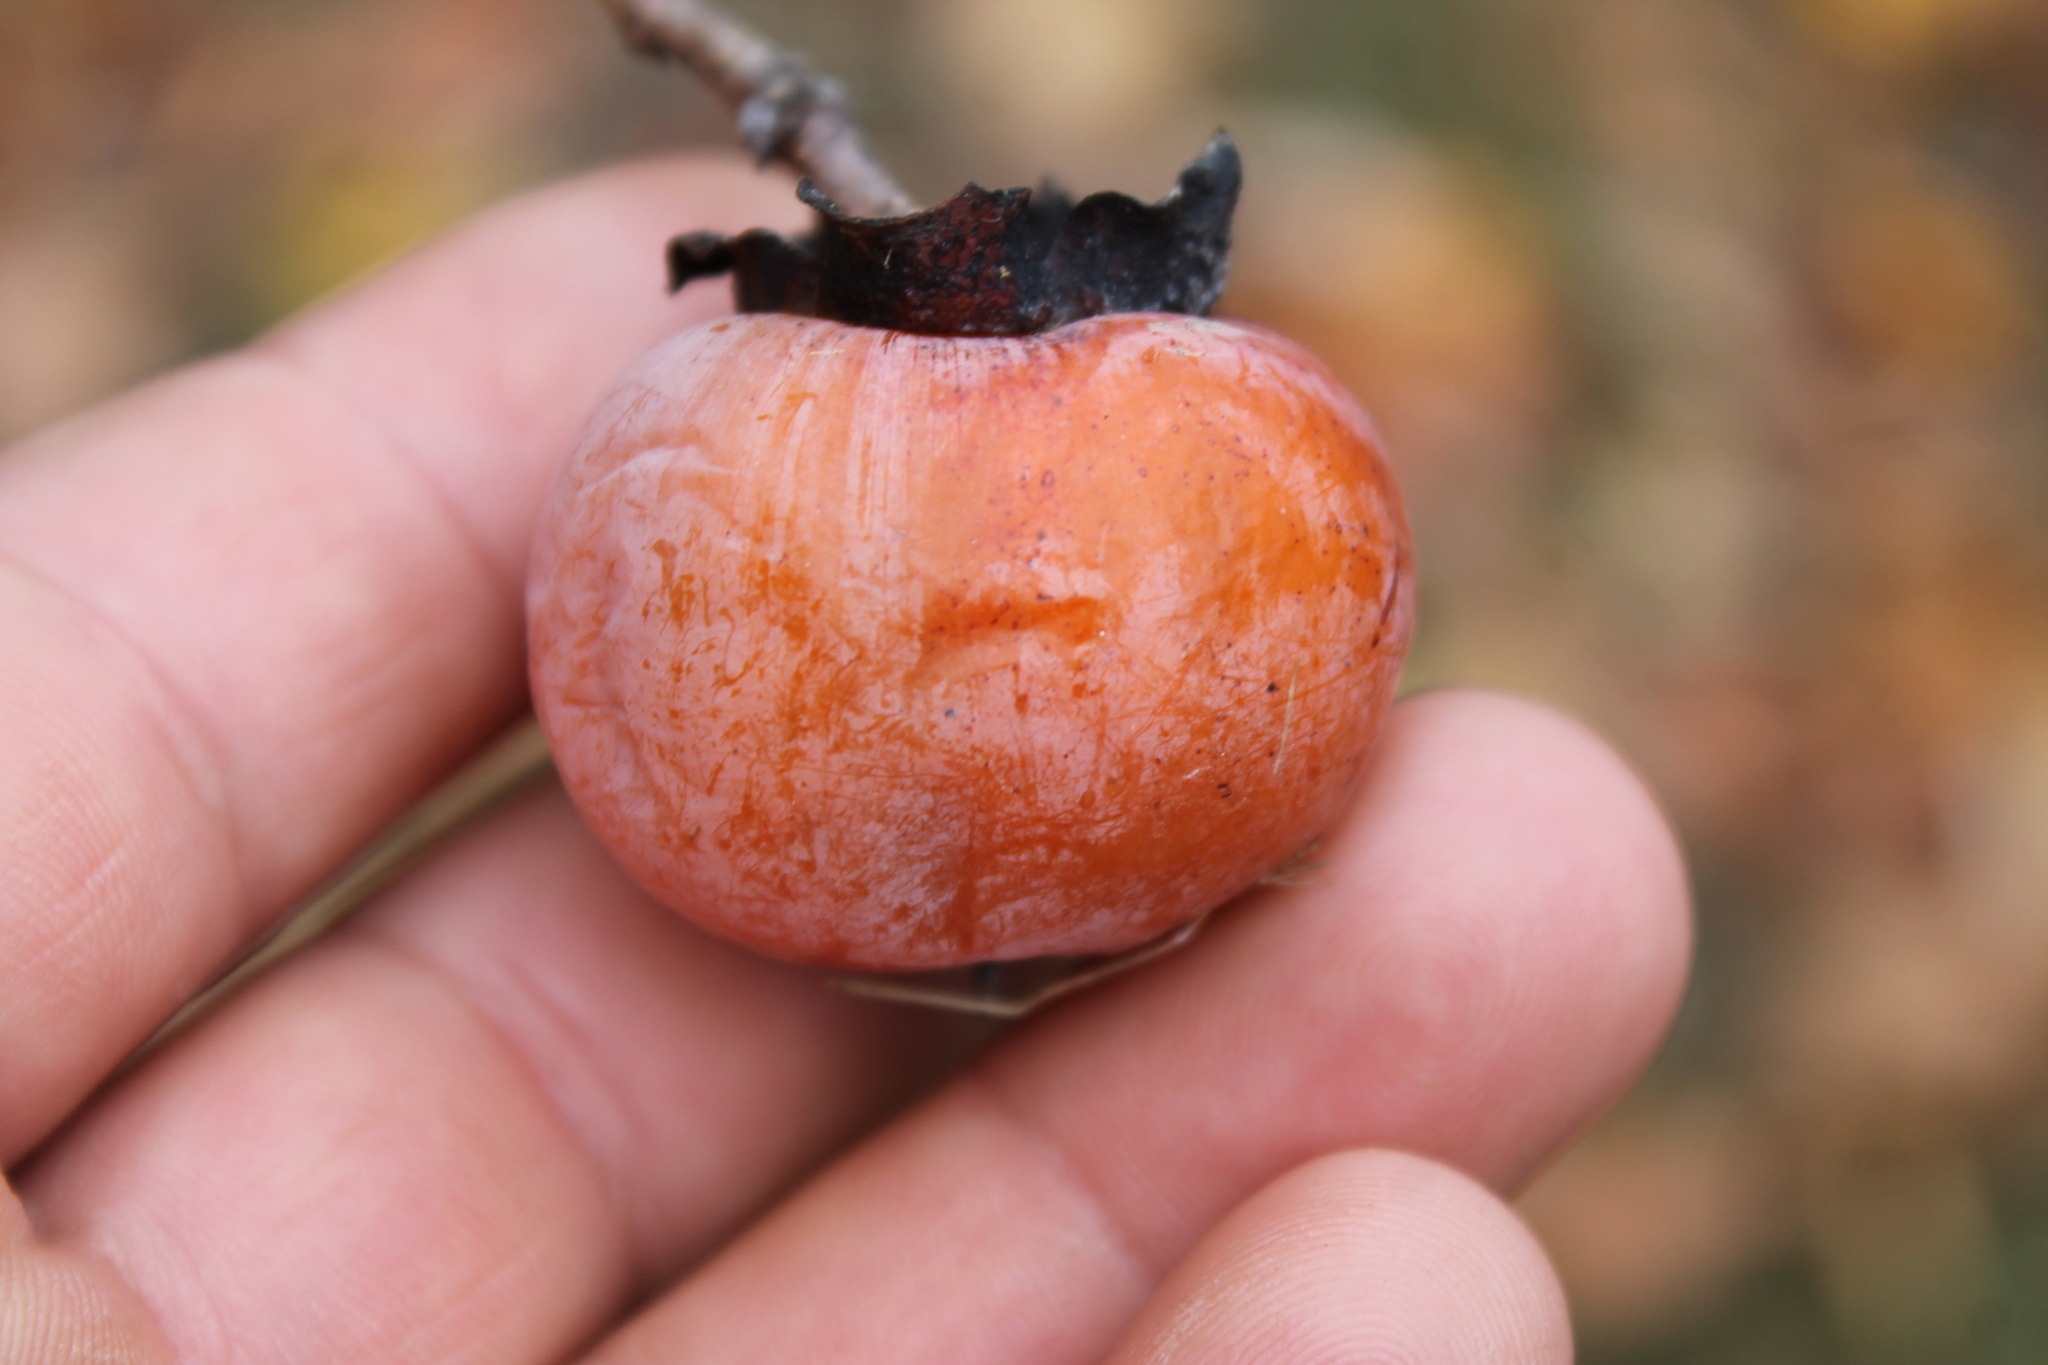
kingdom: Plantae
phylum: Tracheophyta
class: Magnoliopsida
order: Ericales
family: Ebenaceae
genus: Diospyros
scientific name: Diospyros virginiana
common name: Persimmon
